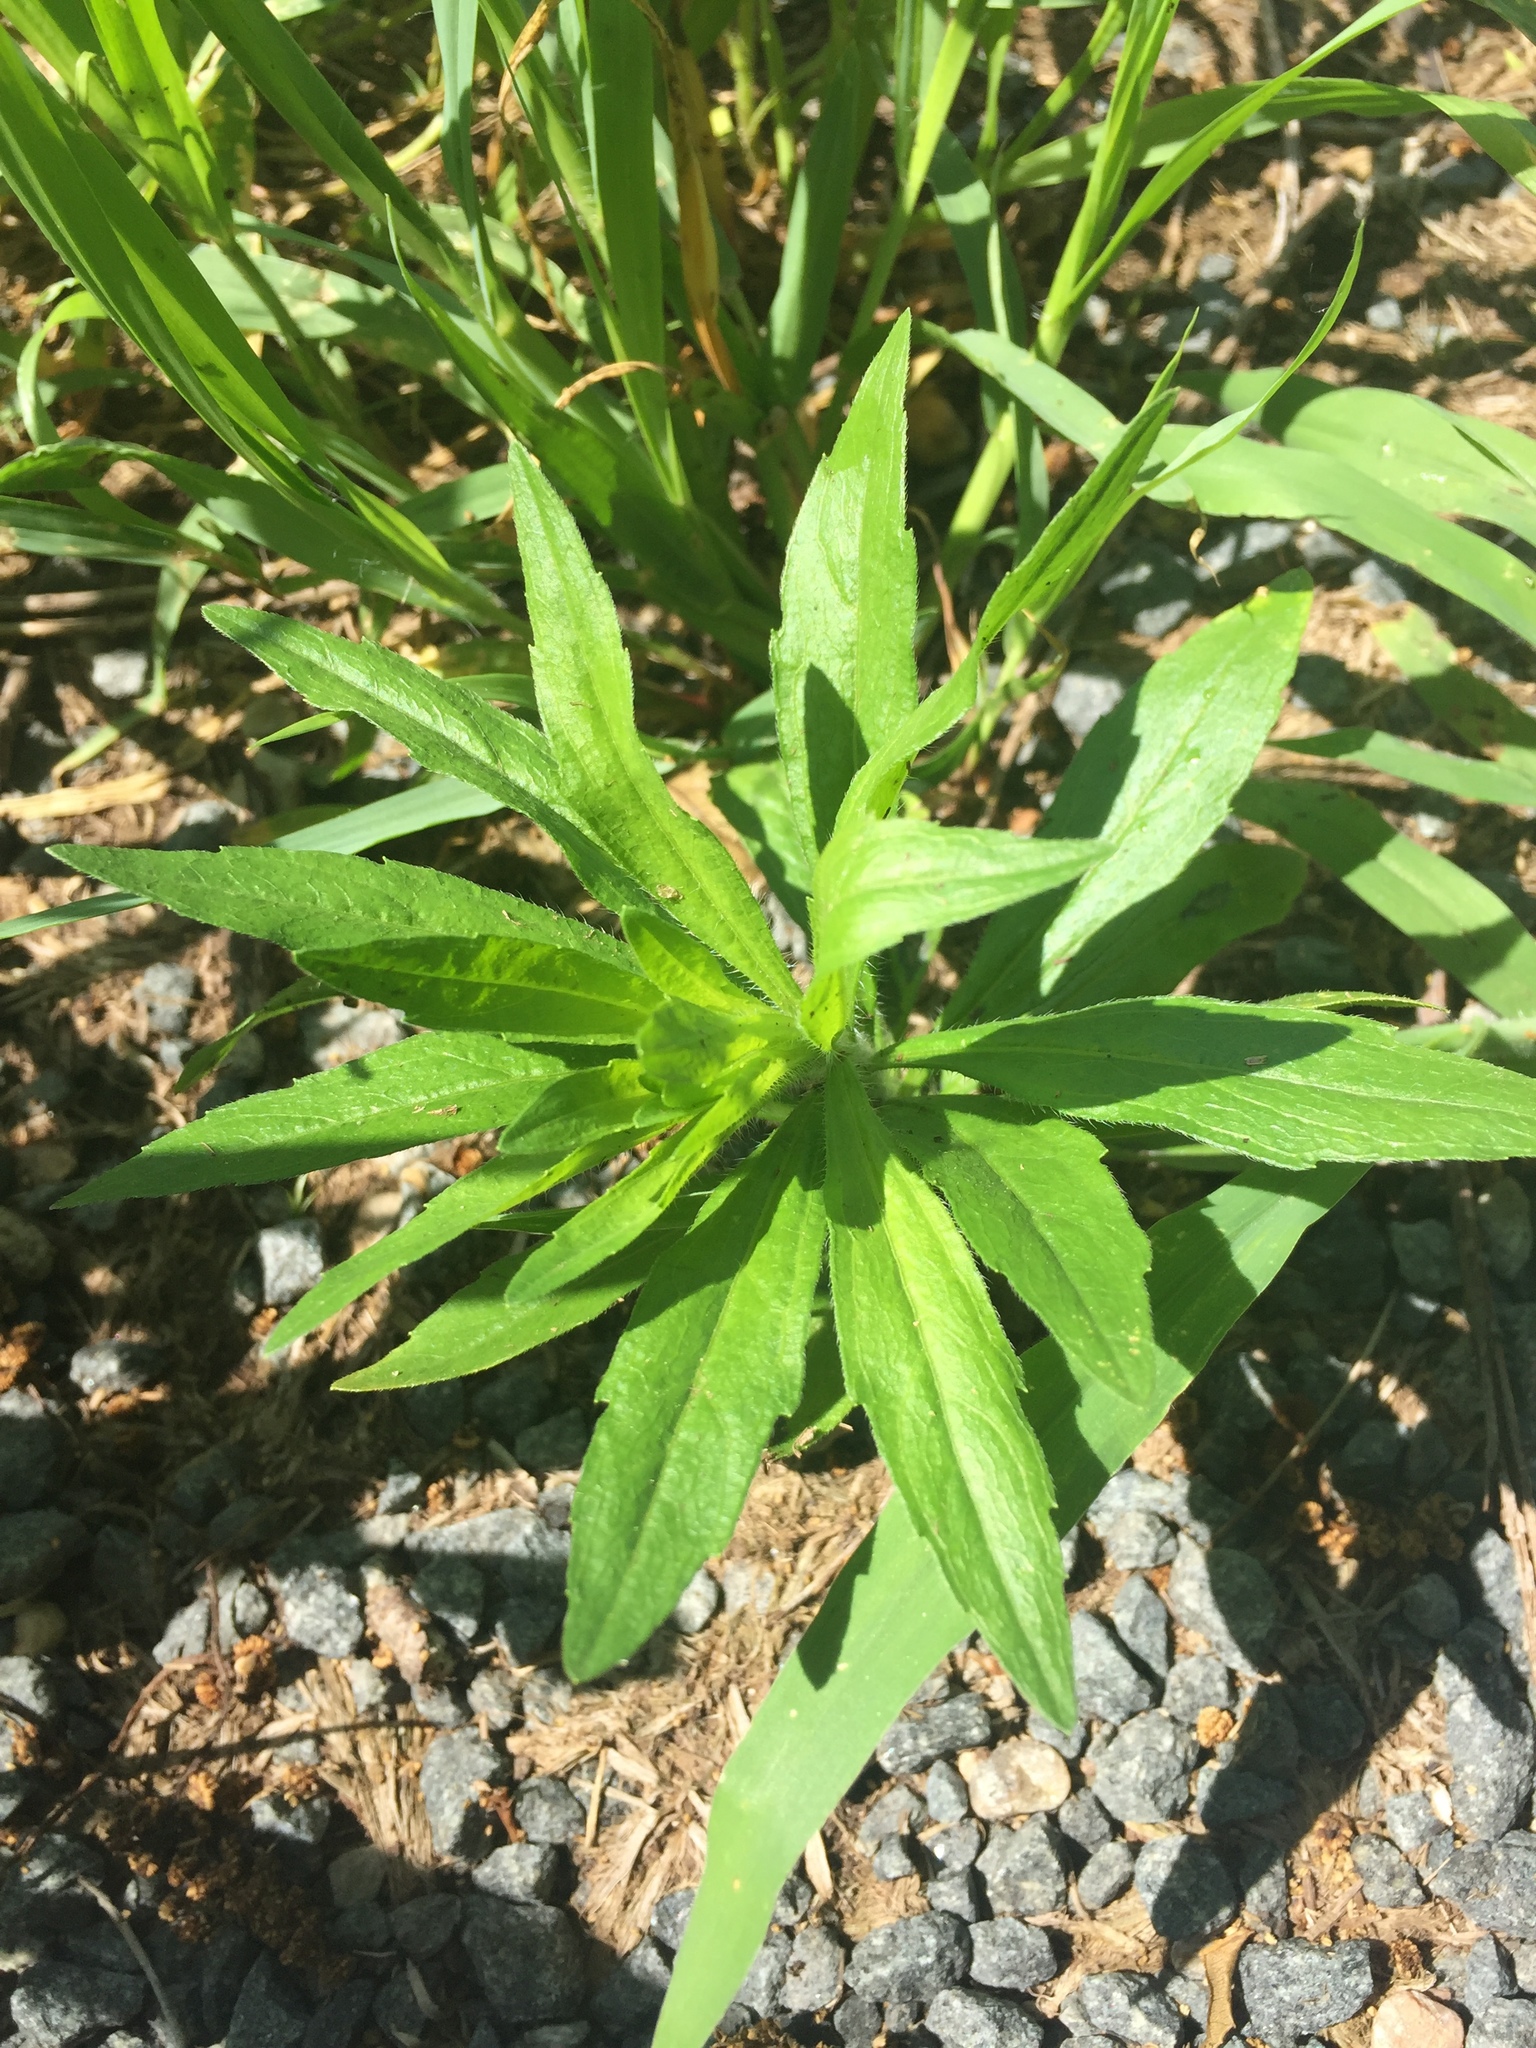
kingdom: Plantae
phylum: Tracheophyta
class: Magnoliopsida
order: Asterales
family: Asteraceae
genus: Erigeron
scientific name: Erigeron canadensis
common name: Canadian fleabane
